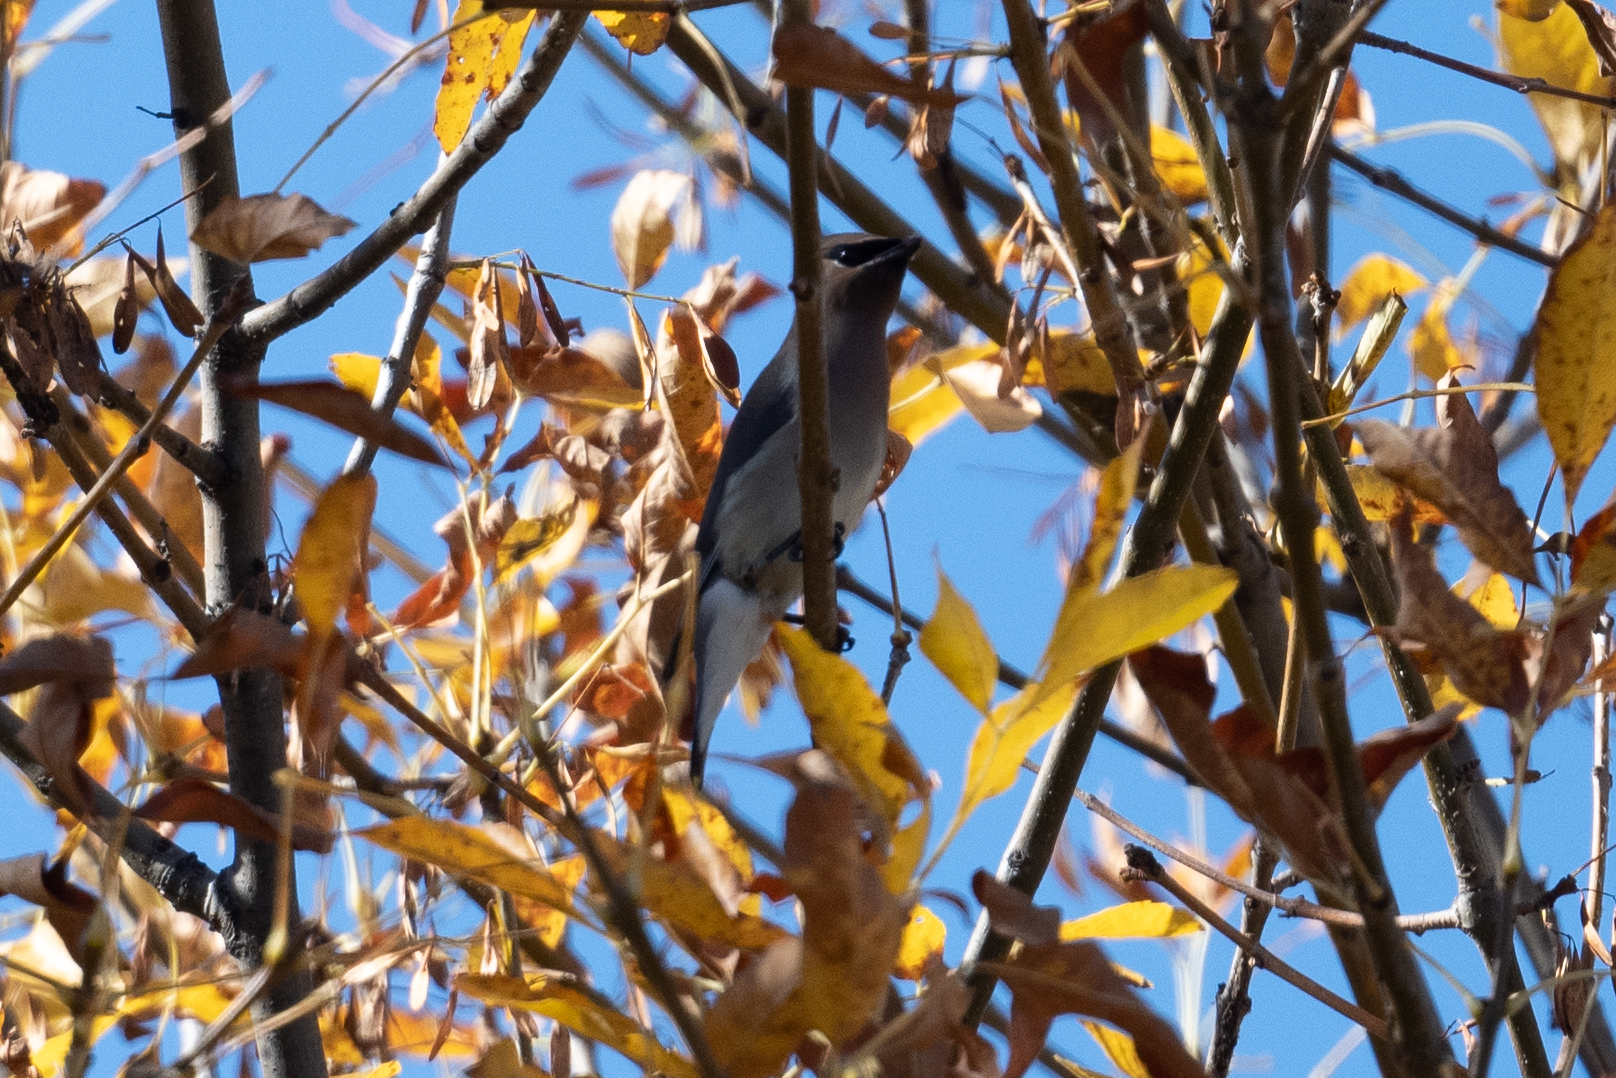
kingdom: Animalia
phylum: Chordata
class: Aves
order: Passeriformes
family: Bombycillidae
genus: Bombycilla
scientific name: Bombycilla cedrorum
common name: Cedar waxwing
